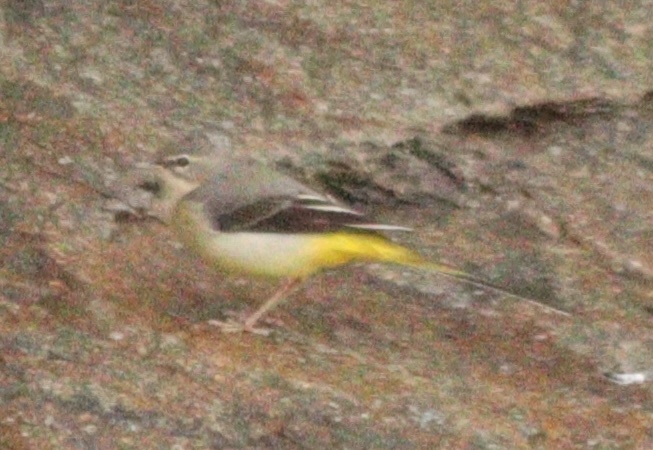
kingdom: Animalia
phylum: Chordata
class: Aves
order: Passeriformes
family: Motacillidae
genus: Motacilla
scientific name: Motacilla cinerea
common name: Grey wagtail
